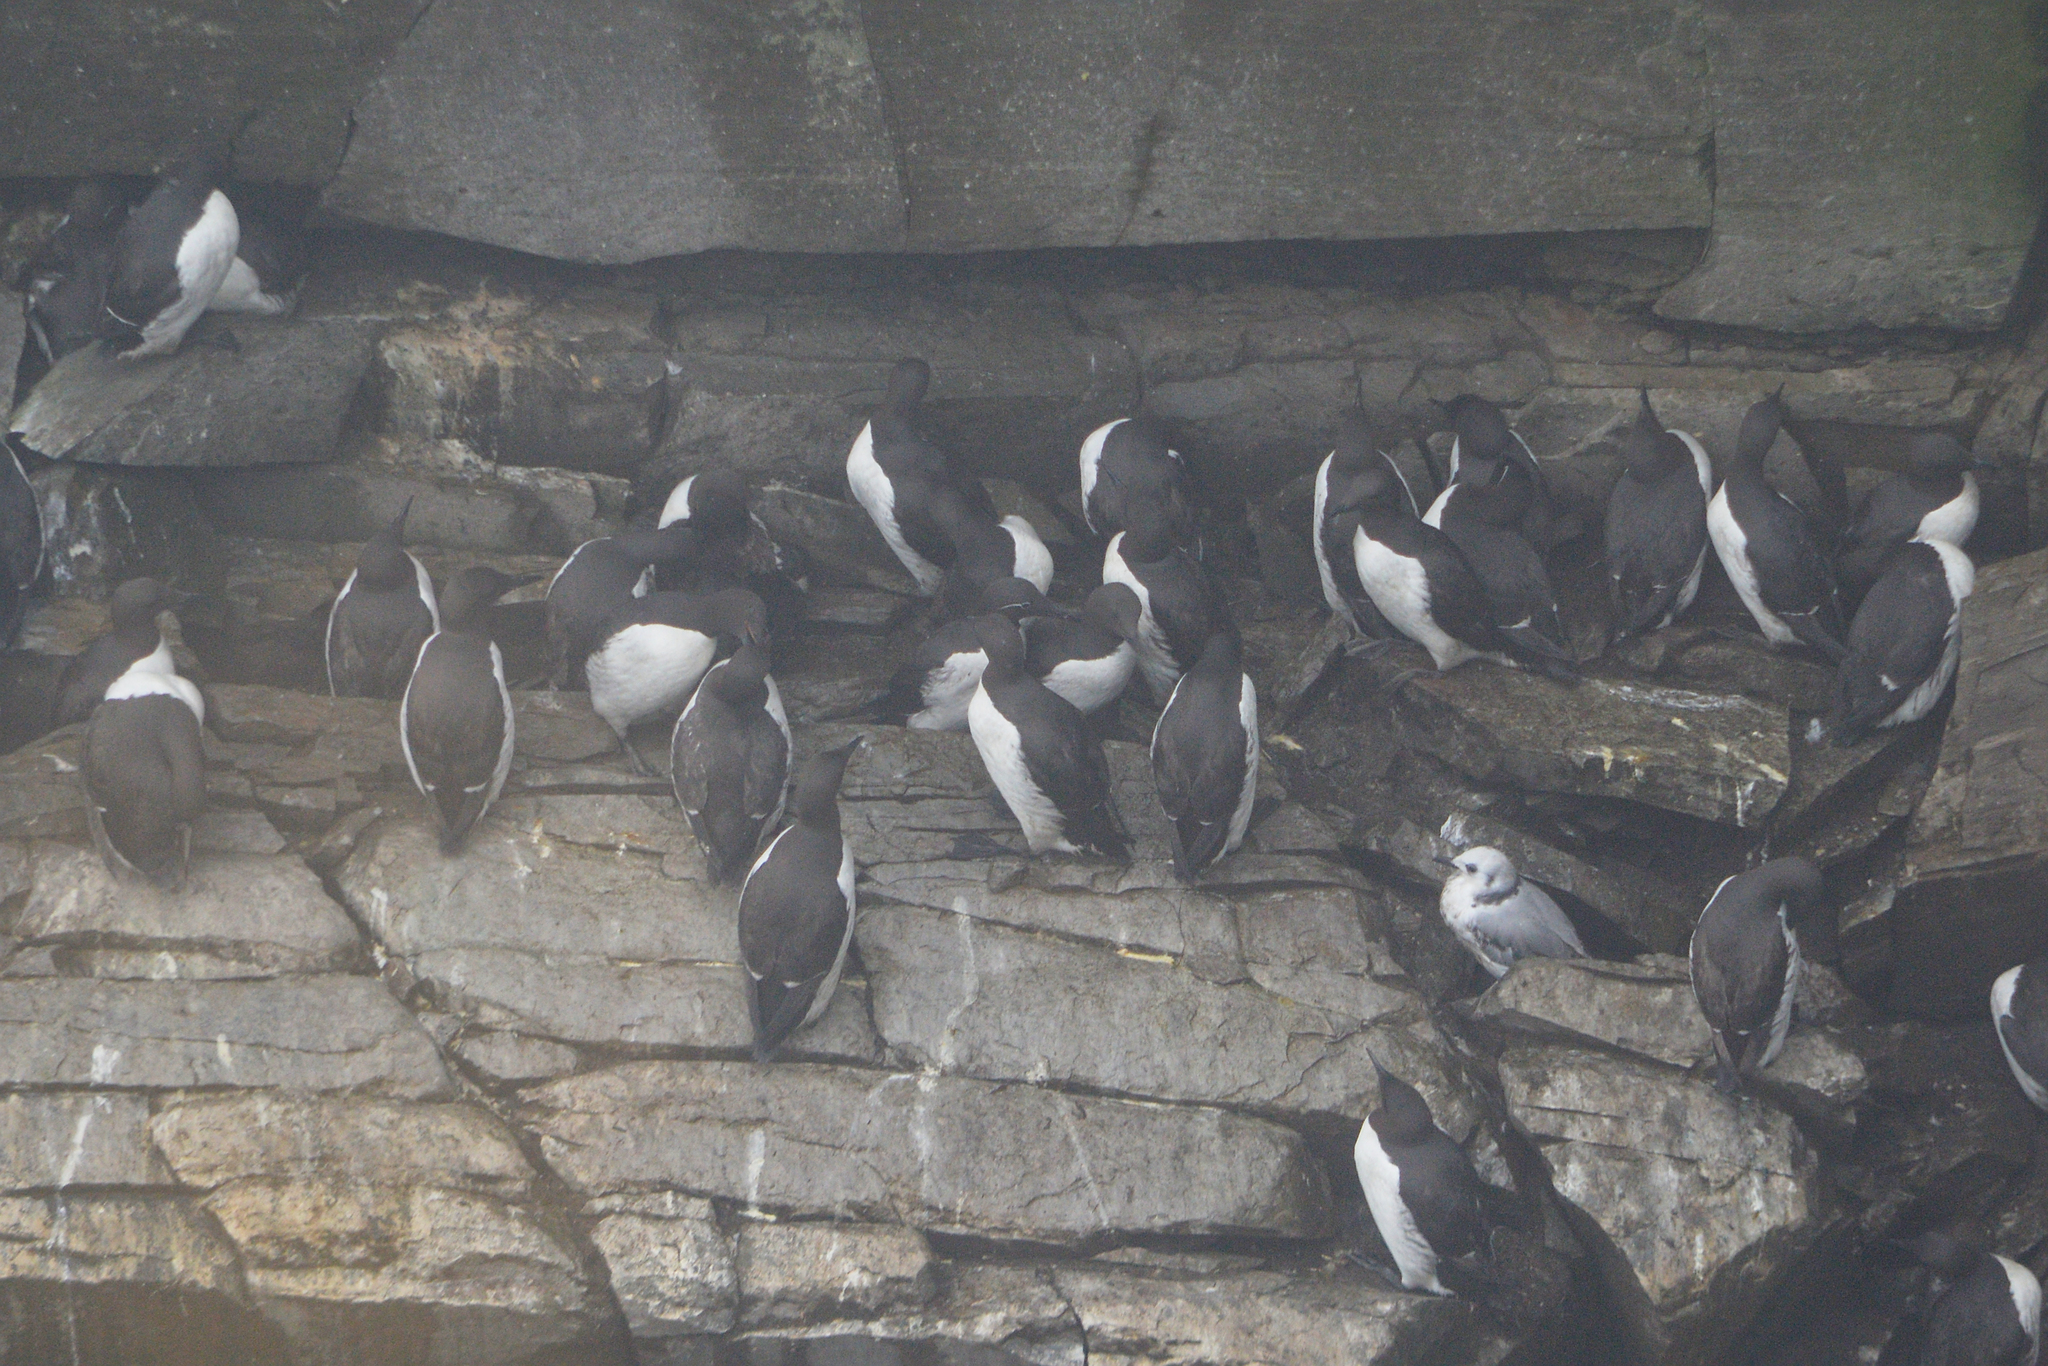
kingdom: Animalia
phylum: Chordata
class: Aves
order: Charadriiformes
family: Alcidae
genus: Uria
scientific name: Uria aalge
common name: Common murre
